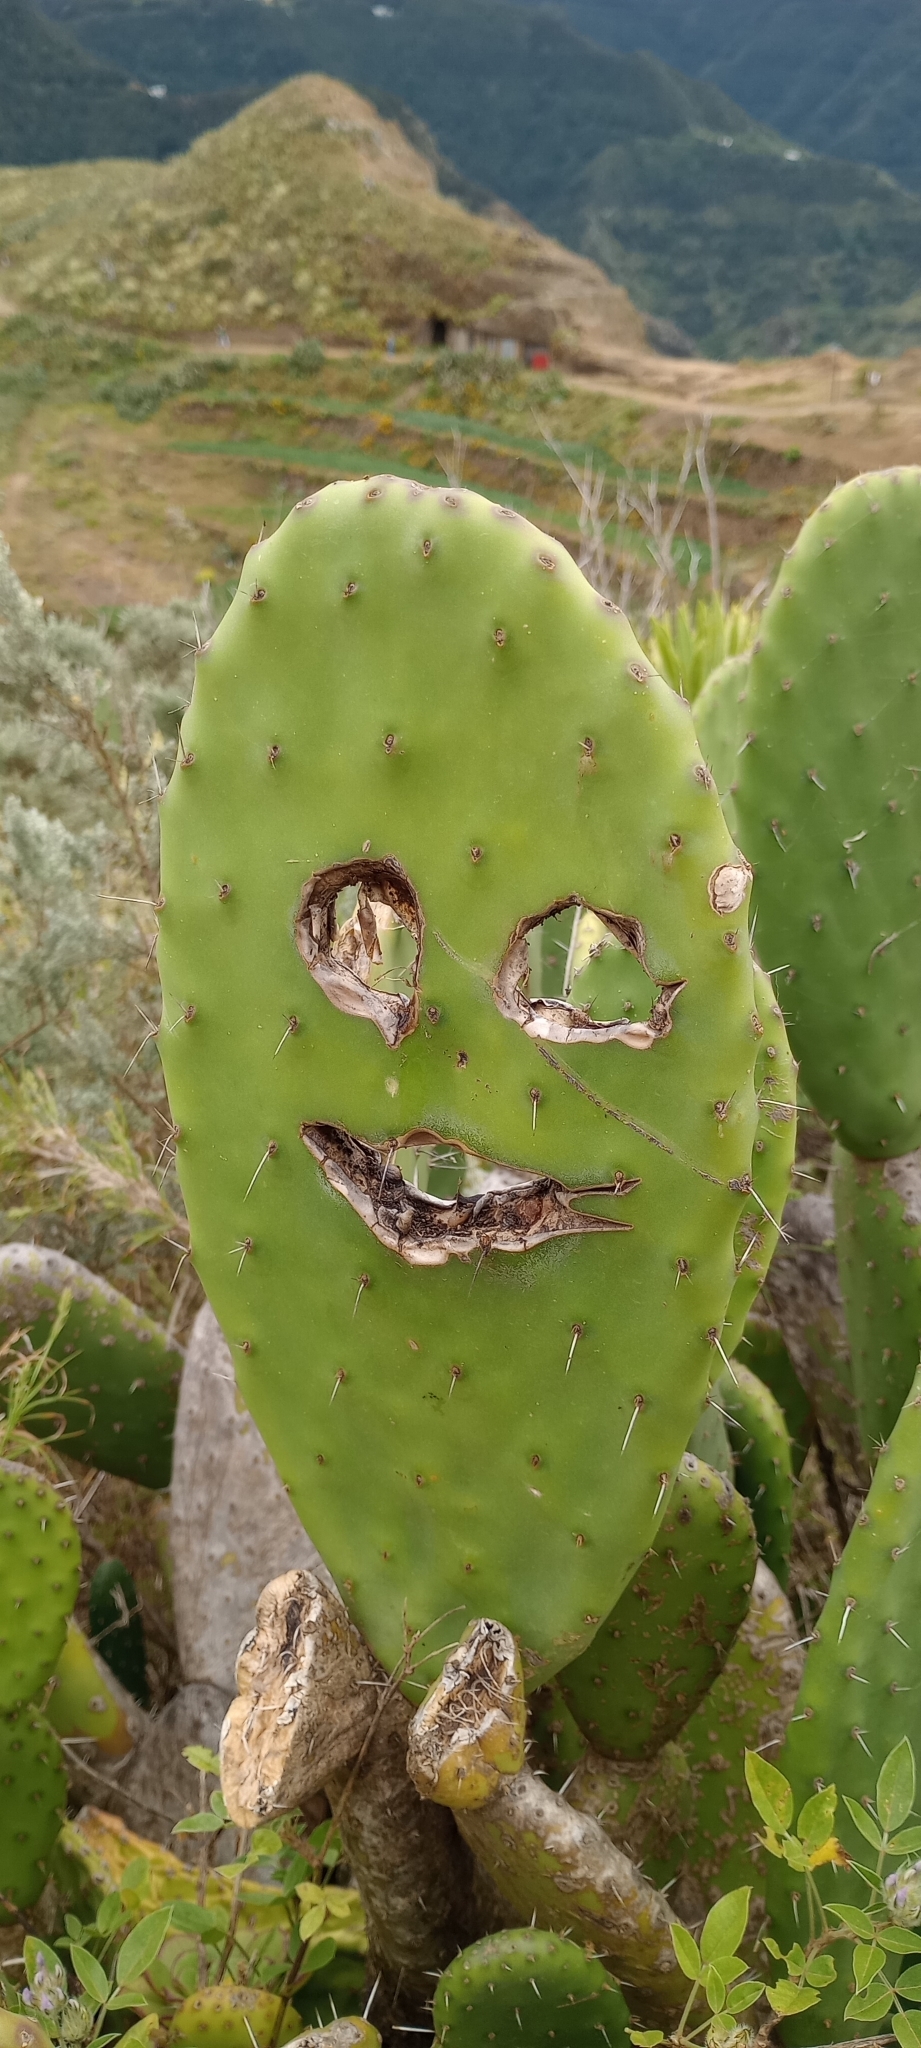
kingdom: Plantae
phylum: Tracheophyta
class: Magnoliopsida
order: Caryophyllales
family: Cactaceae
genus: Opuntia
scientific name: Opuntia ficus-indica
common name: Barbary fig
